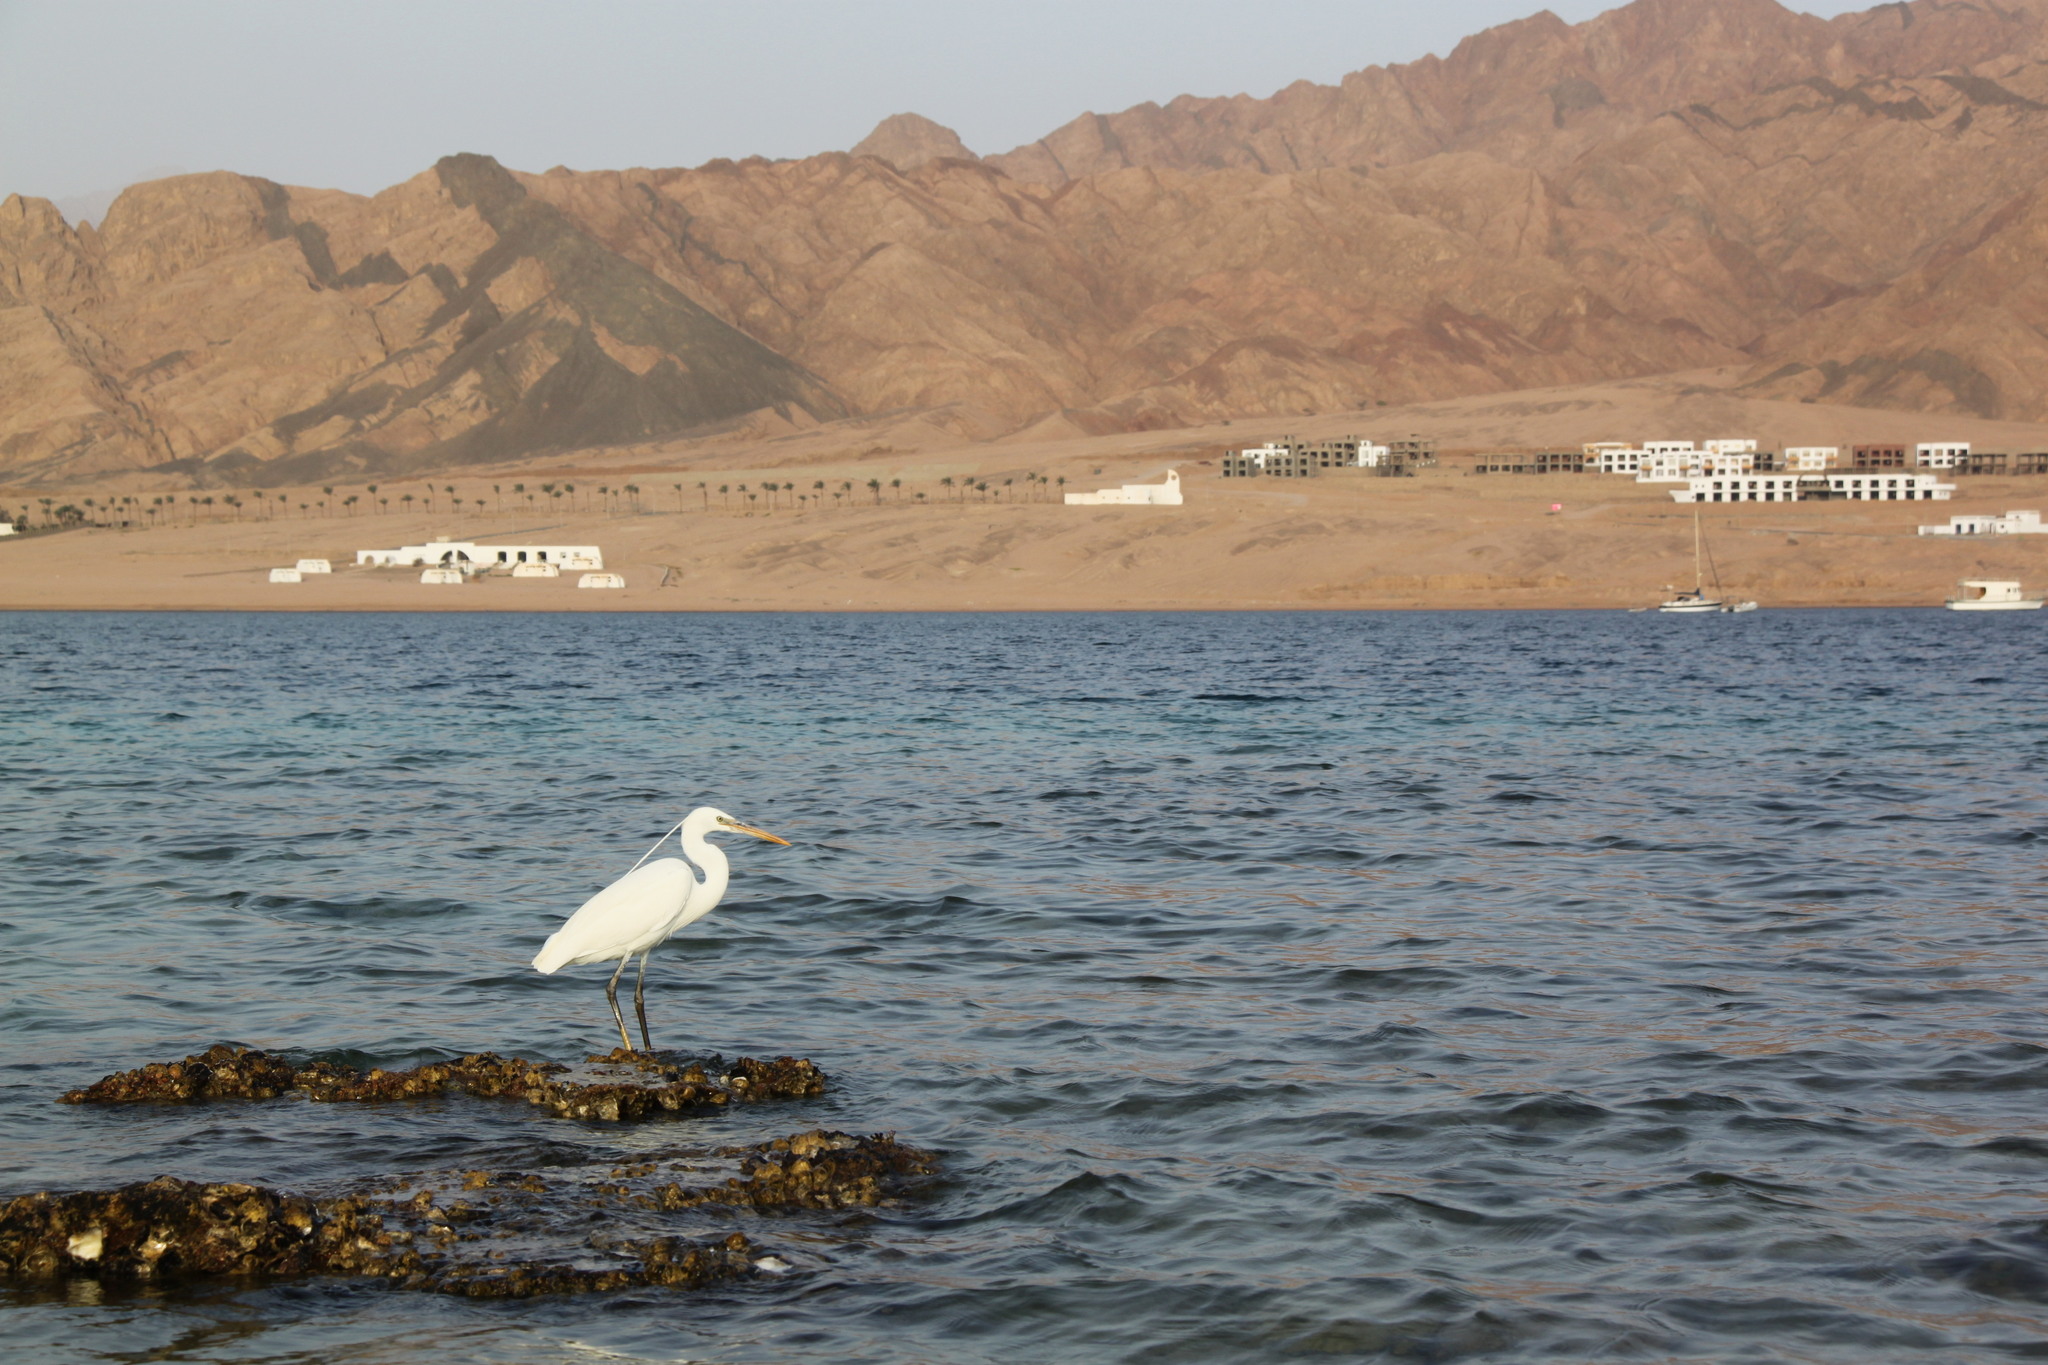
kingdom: Animalia
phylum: Chordata
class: Aves
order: Pelecaniformes
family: Ardeidae
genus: Egretta
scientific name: Egretta gularis
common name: Western reef-heron
